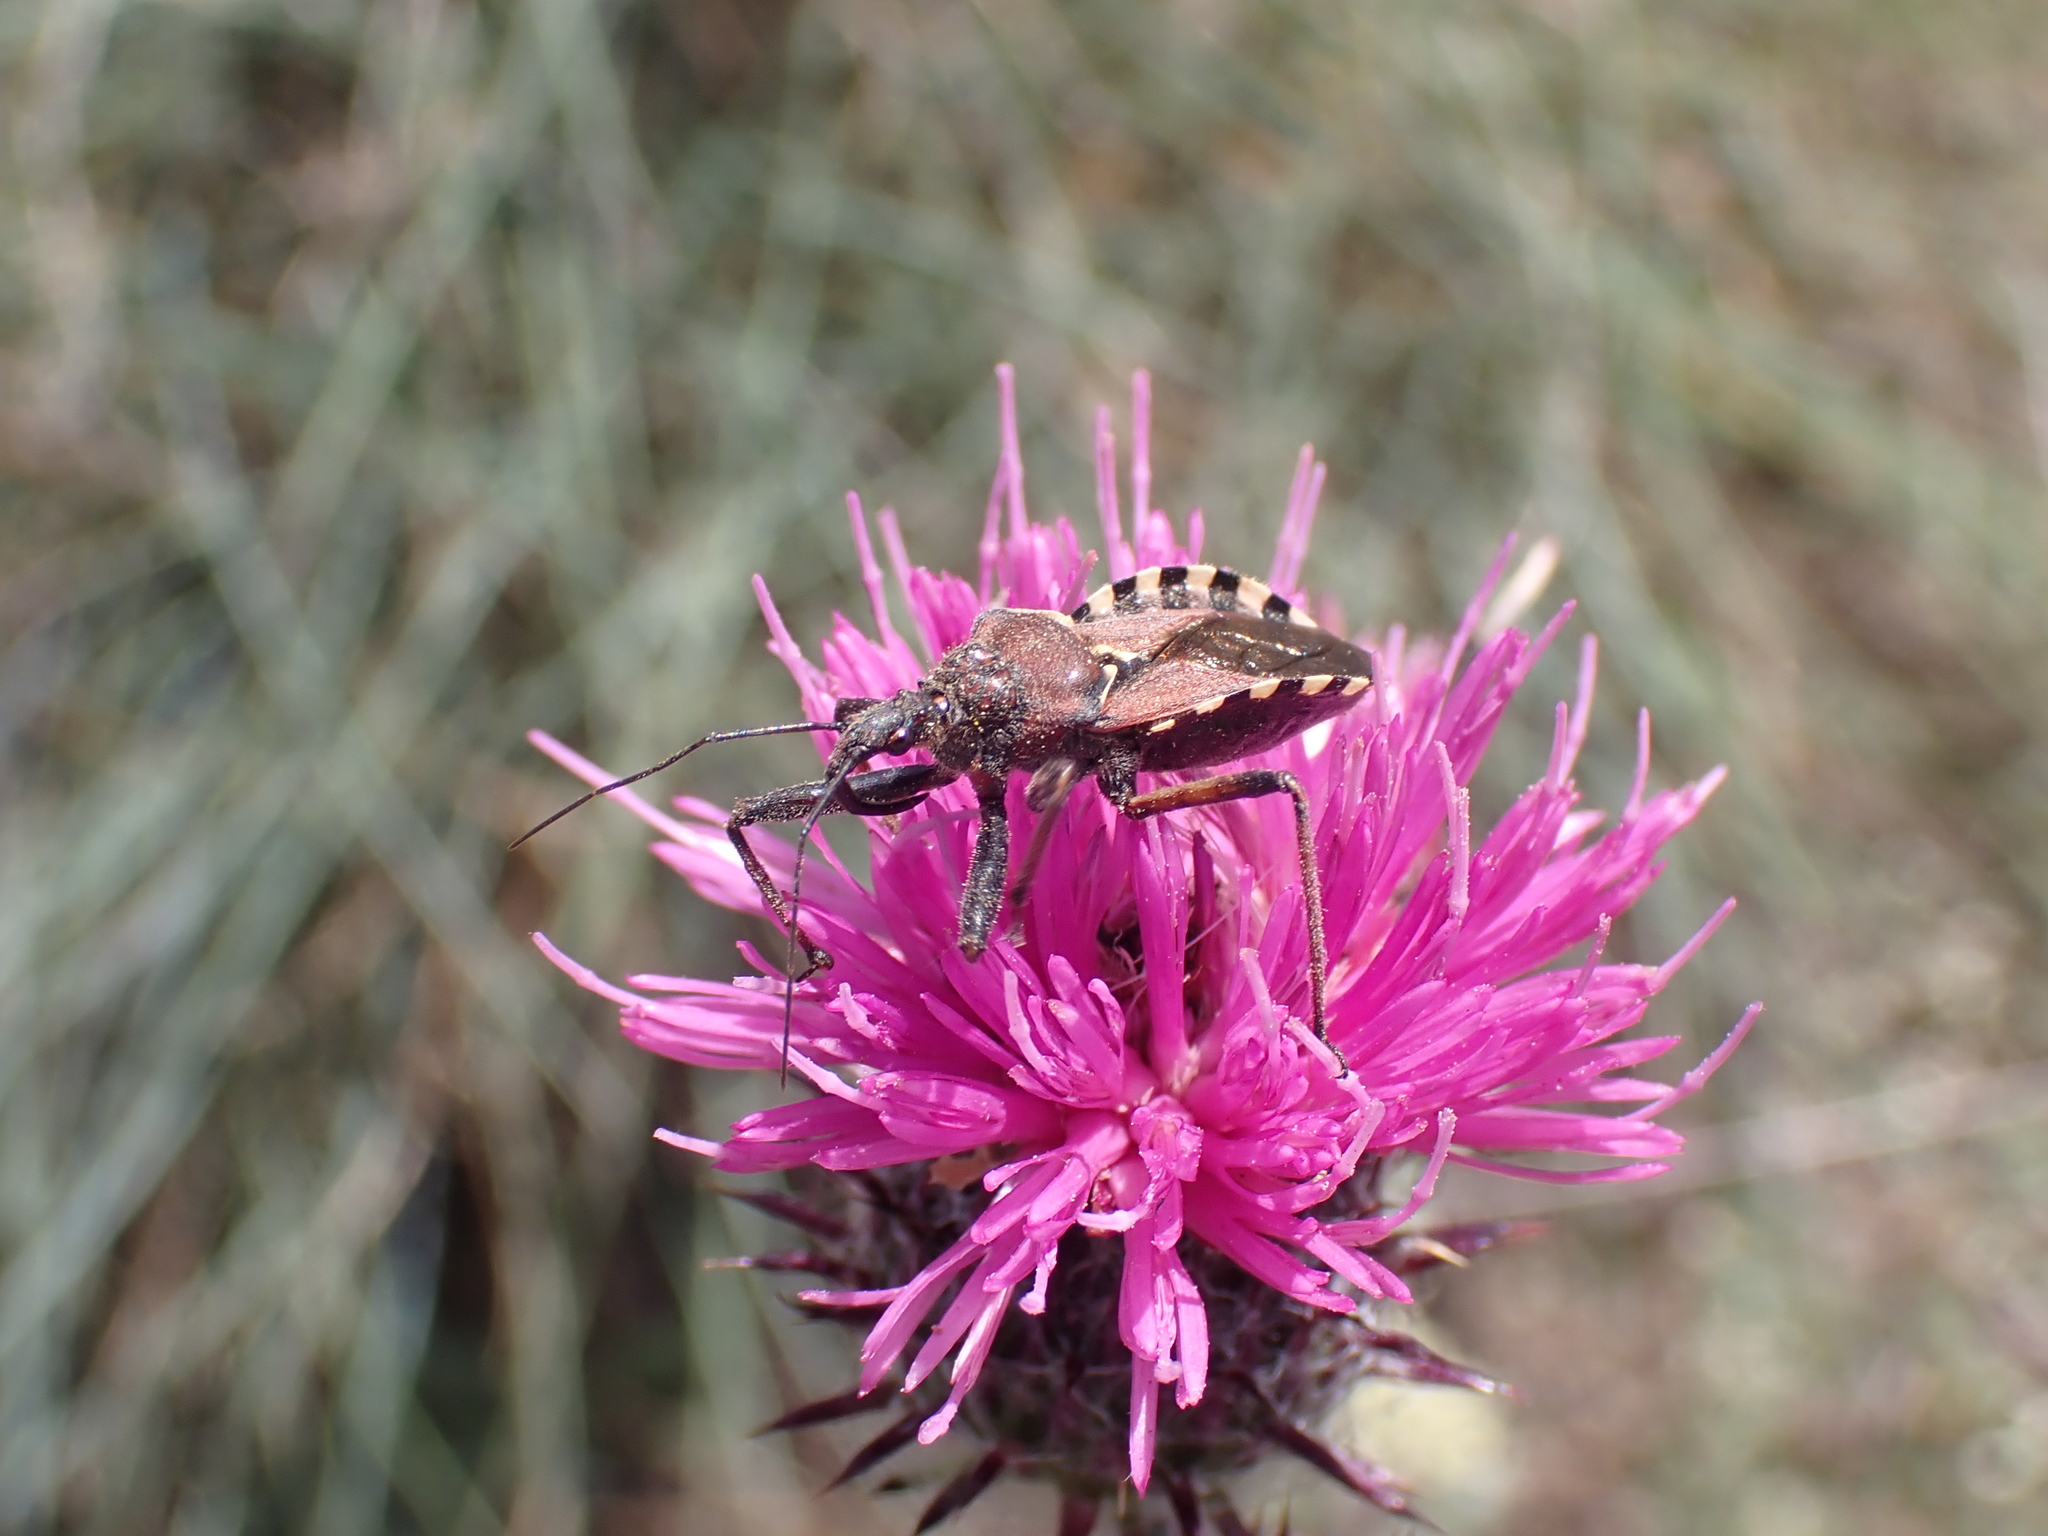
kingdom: Animalia
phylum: Arthropoda
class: Insecta
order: Hemiptera
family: Reduviidae
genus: Rhynocoris
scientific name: Rhynocoris erythropus
